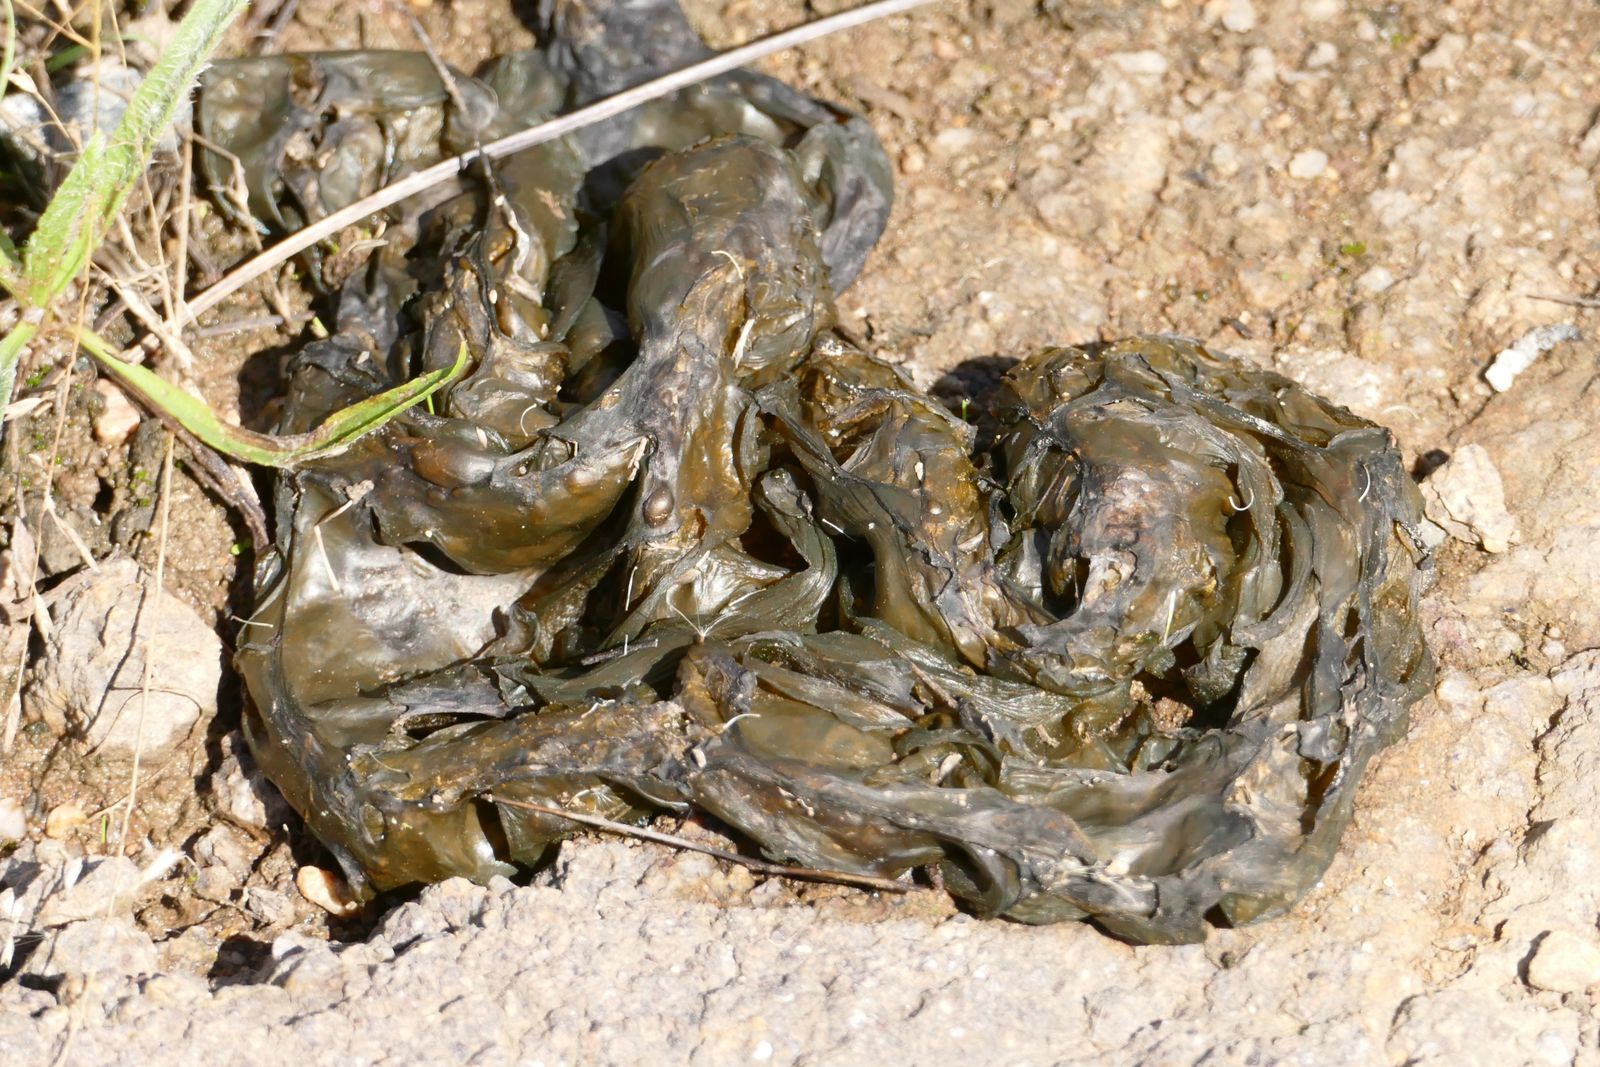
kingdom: Bacteria
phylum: Cyanobacteria
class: Cyanobacteriia
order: Cyanobacteriales
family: Nostocaceae
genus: Nostoc
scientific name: Nostoc commune
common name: Star jelly
